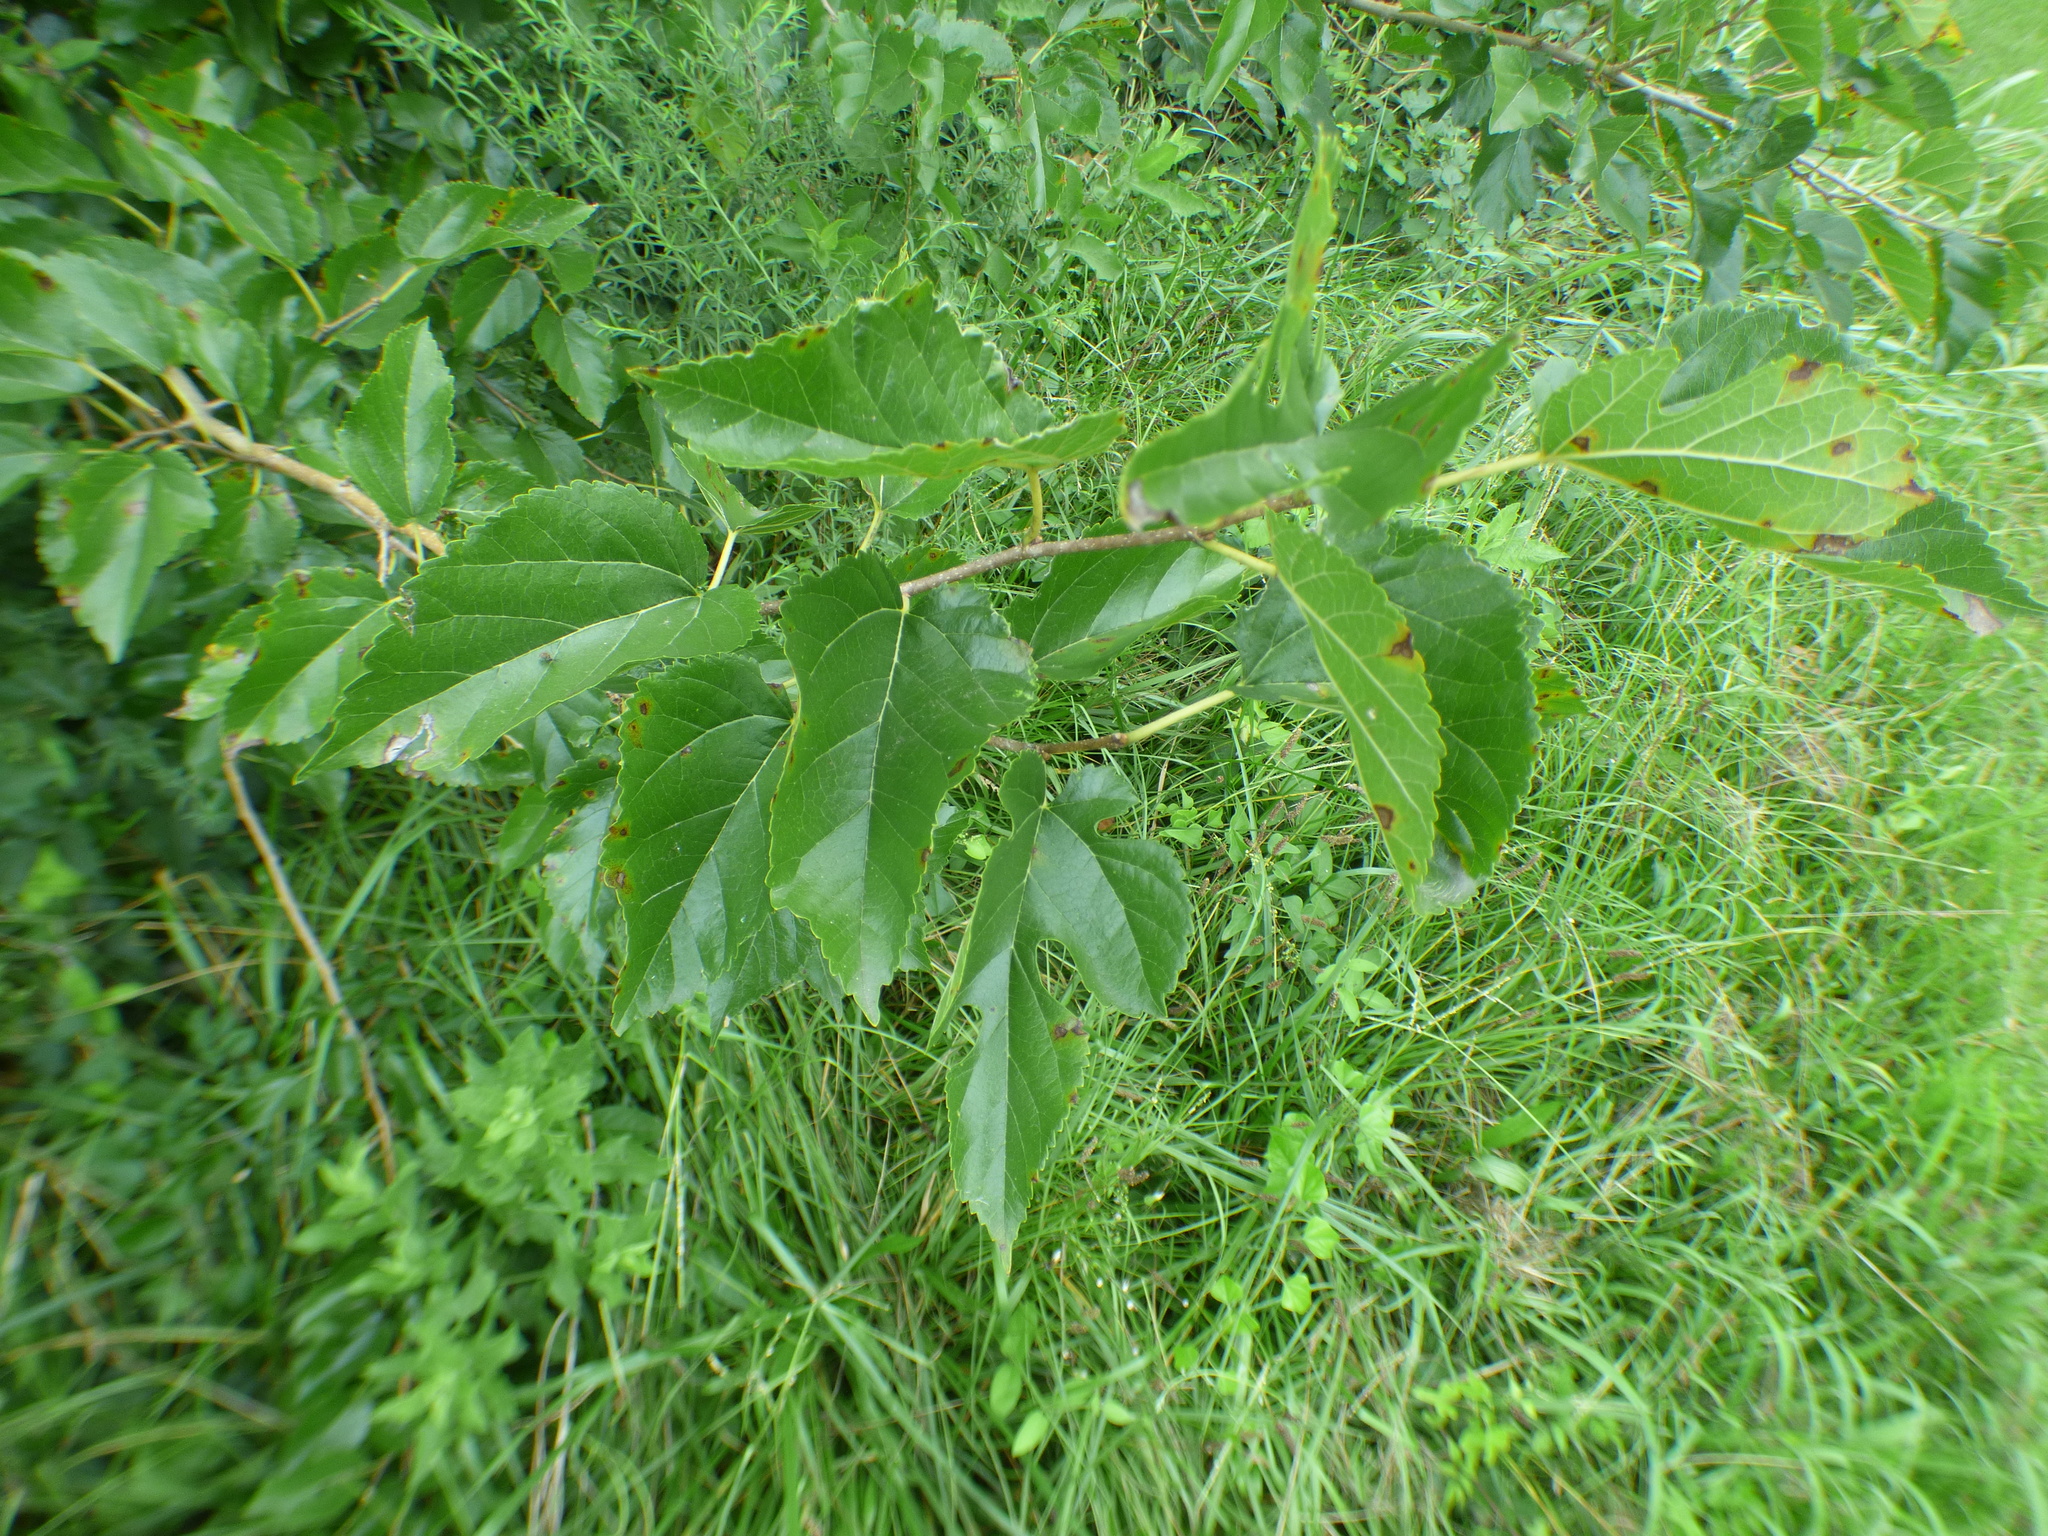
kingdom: Plantae
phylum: Tracheophyta
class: Magnoliopsida
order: Rosales
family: Moraceae
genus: Morus
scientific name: Morus alba
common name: White mulberry
